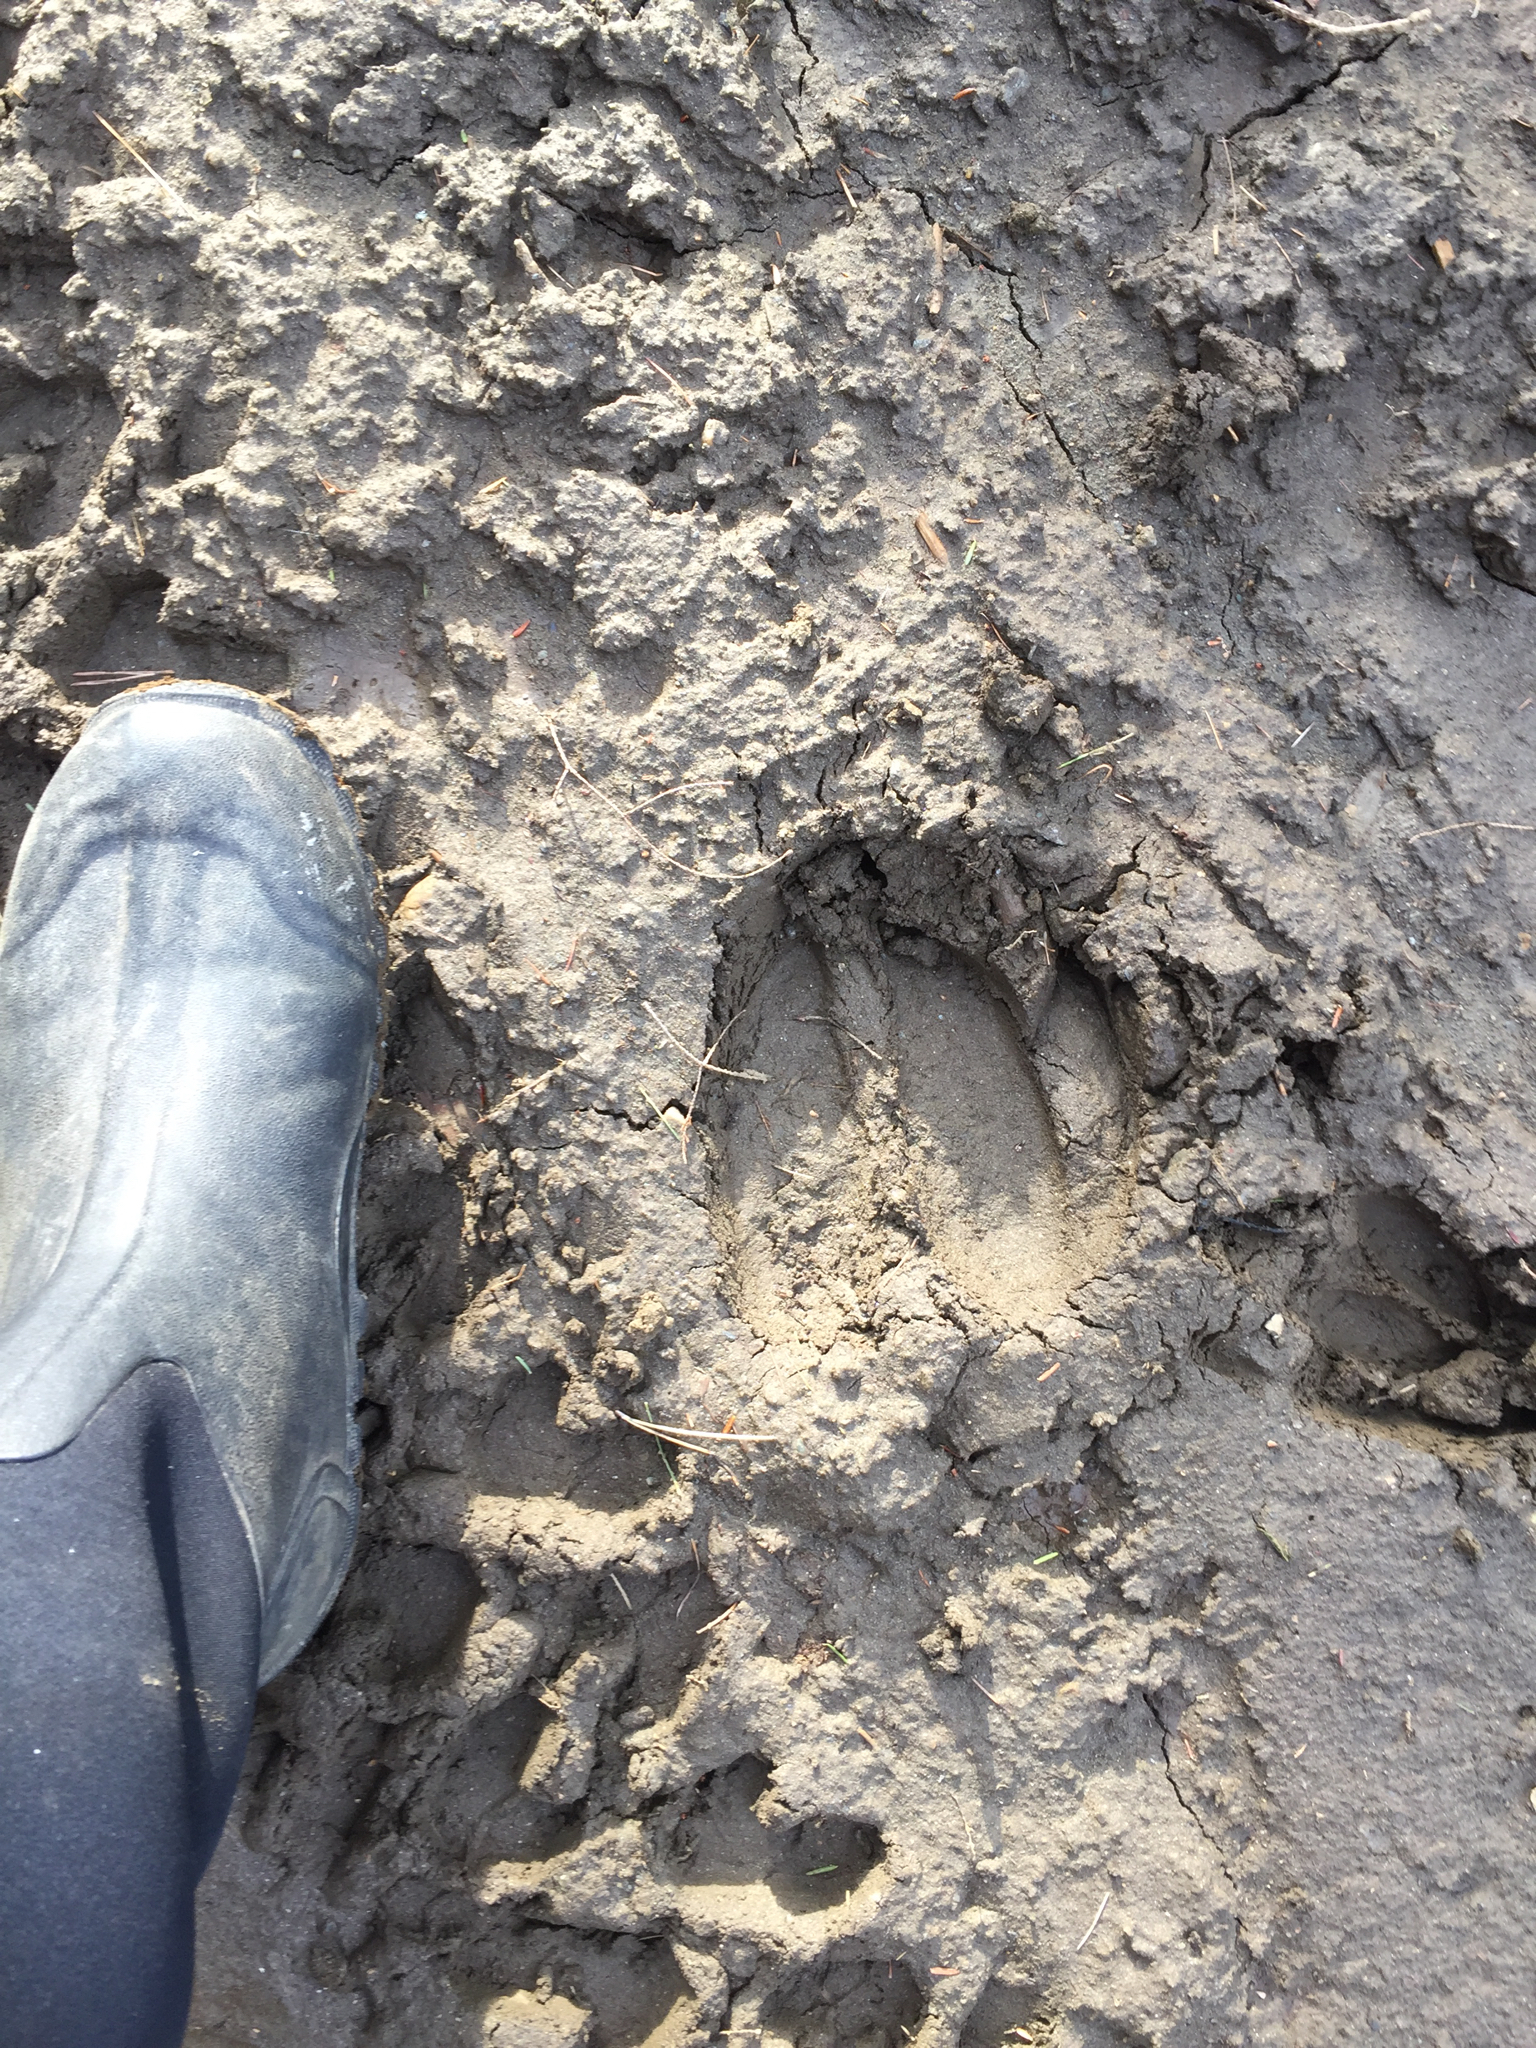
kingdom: Animalia
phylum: Chordata
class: Mammalia
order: Artiodactyla
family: Cervidae
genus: Alces
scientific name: Alces alces
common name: Moose
